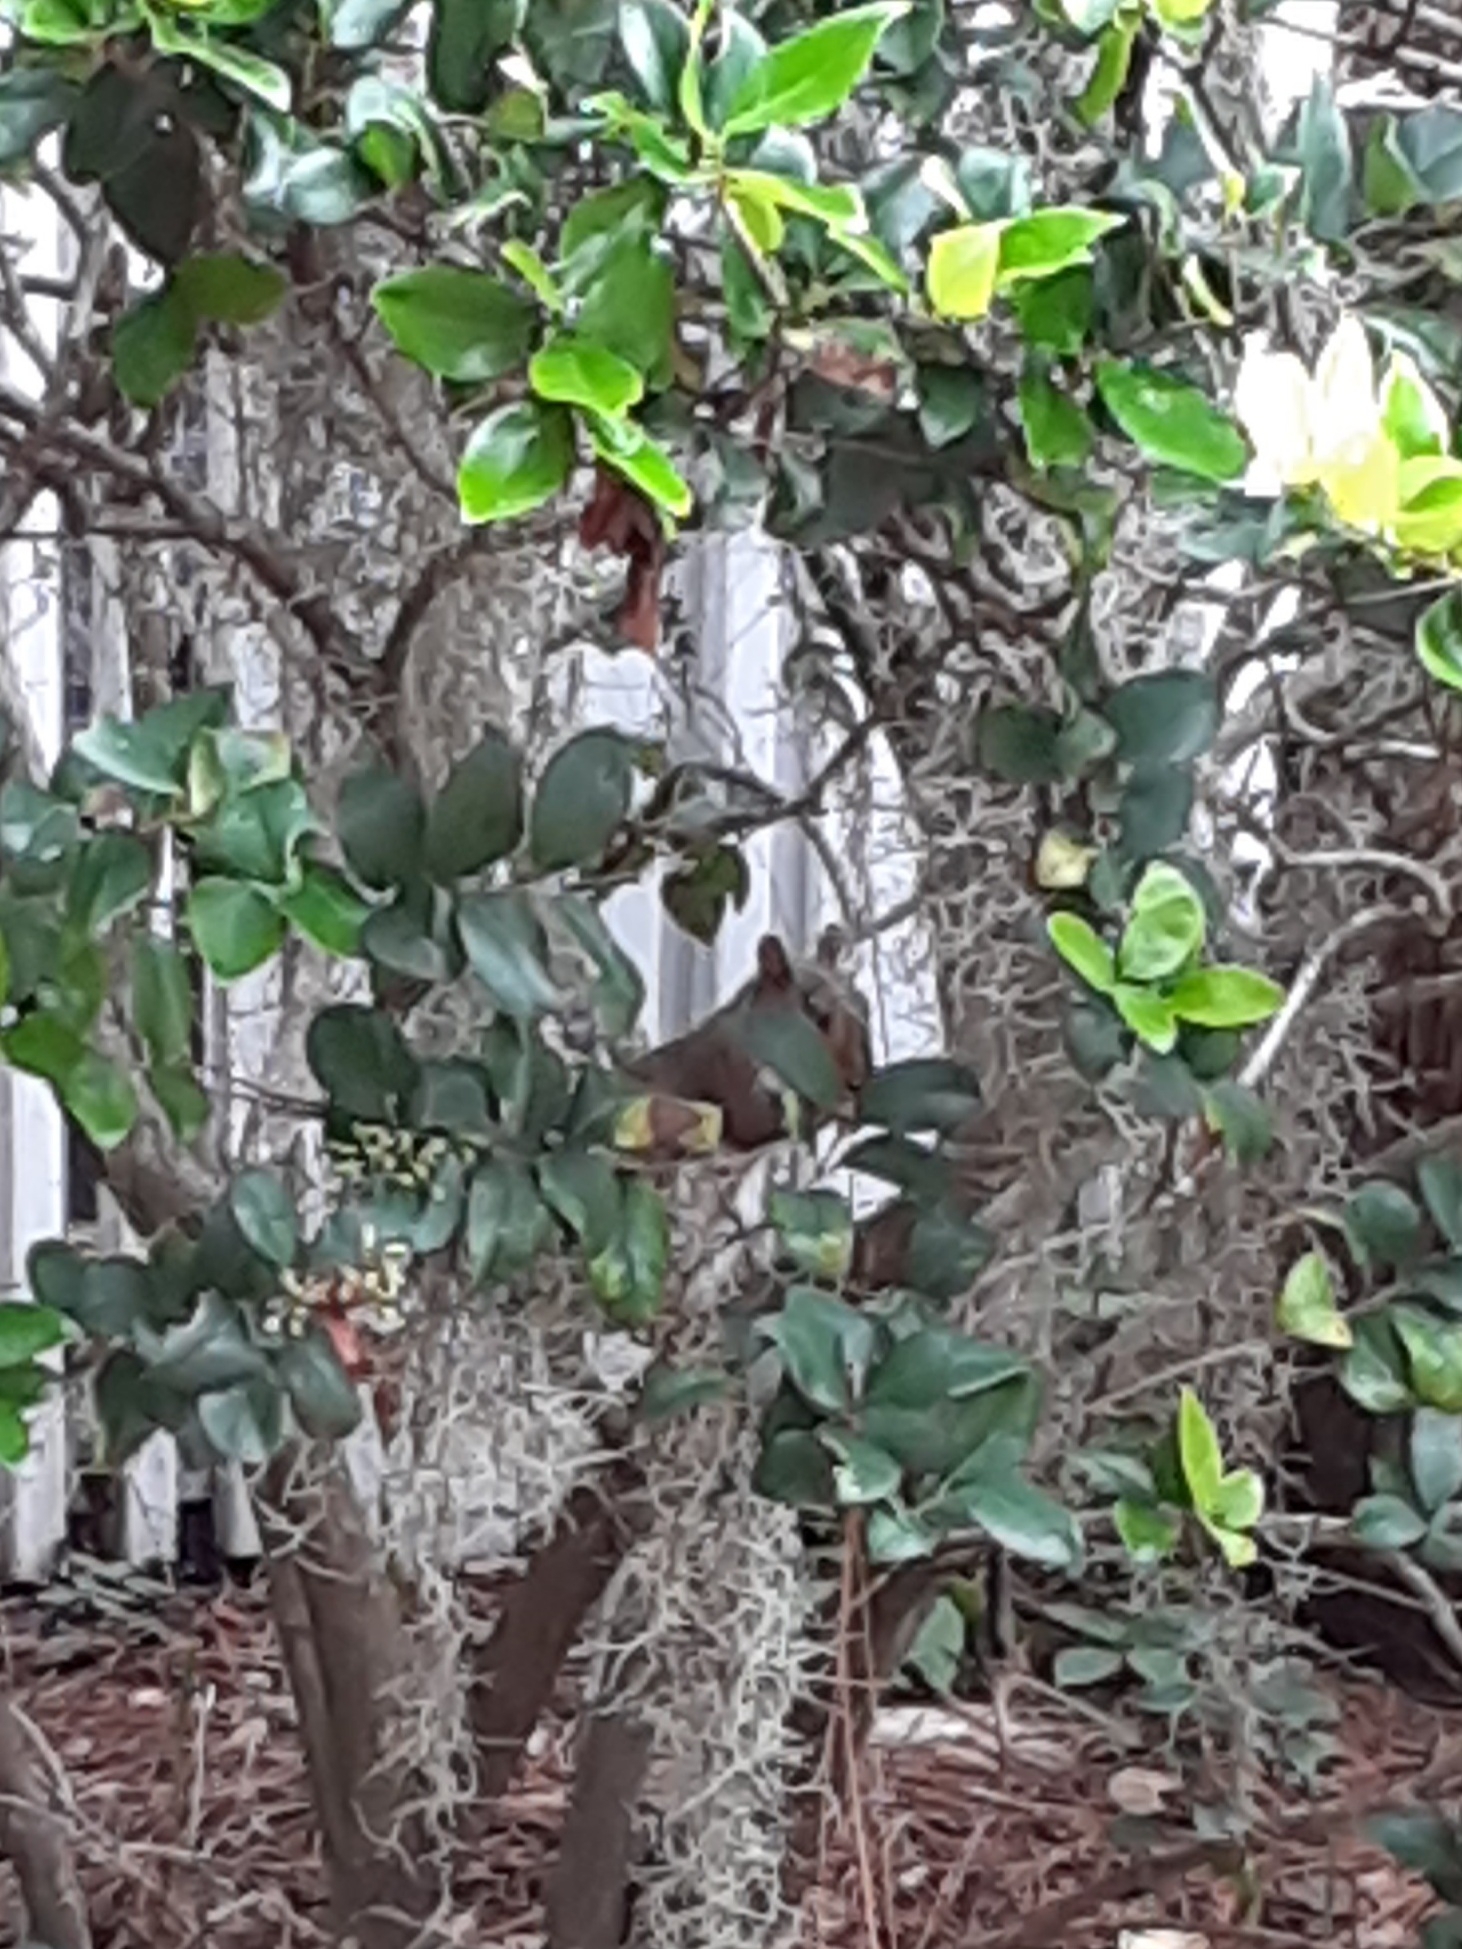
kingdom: Animalia
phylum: Chordata
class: Mammalia
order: Rodentia
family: Sciuridae
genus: Sciurus
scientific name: Sciurus carolinensis
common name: Eastern gray squirrel
